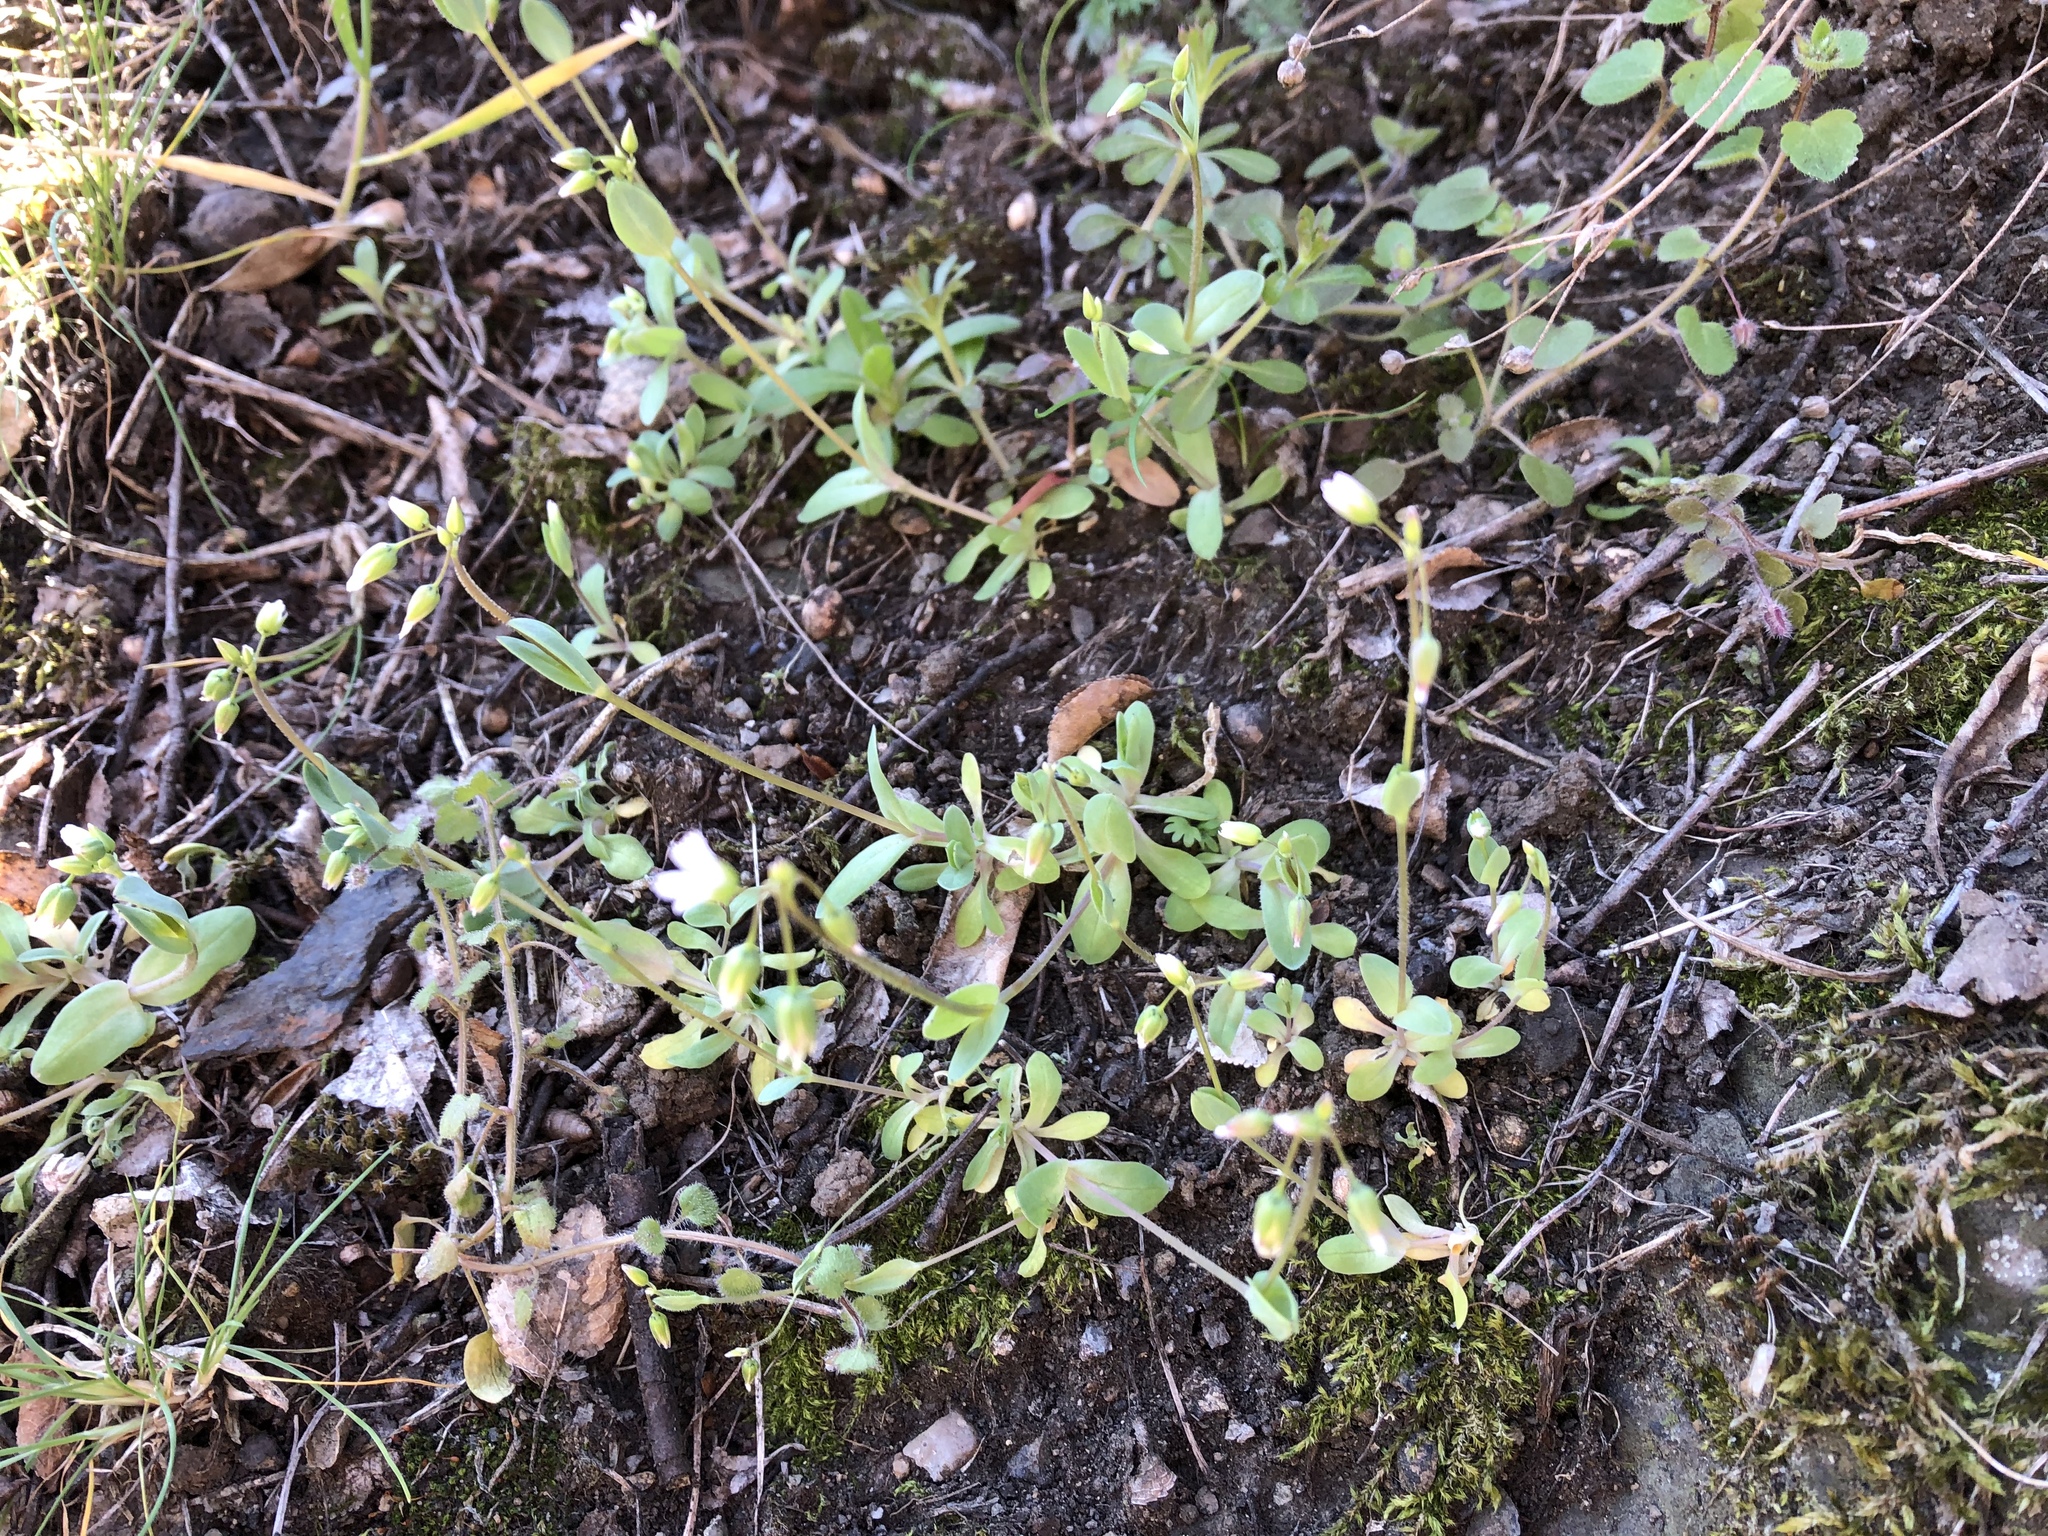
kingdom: Plantae
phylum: Tracheophyta
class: Magnoliopsida
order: Caryophyllales
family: Caryophyllaceae
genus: Holosteum
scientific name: Holosteum umbellatum
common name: Jagged chickweed
